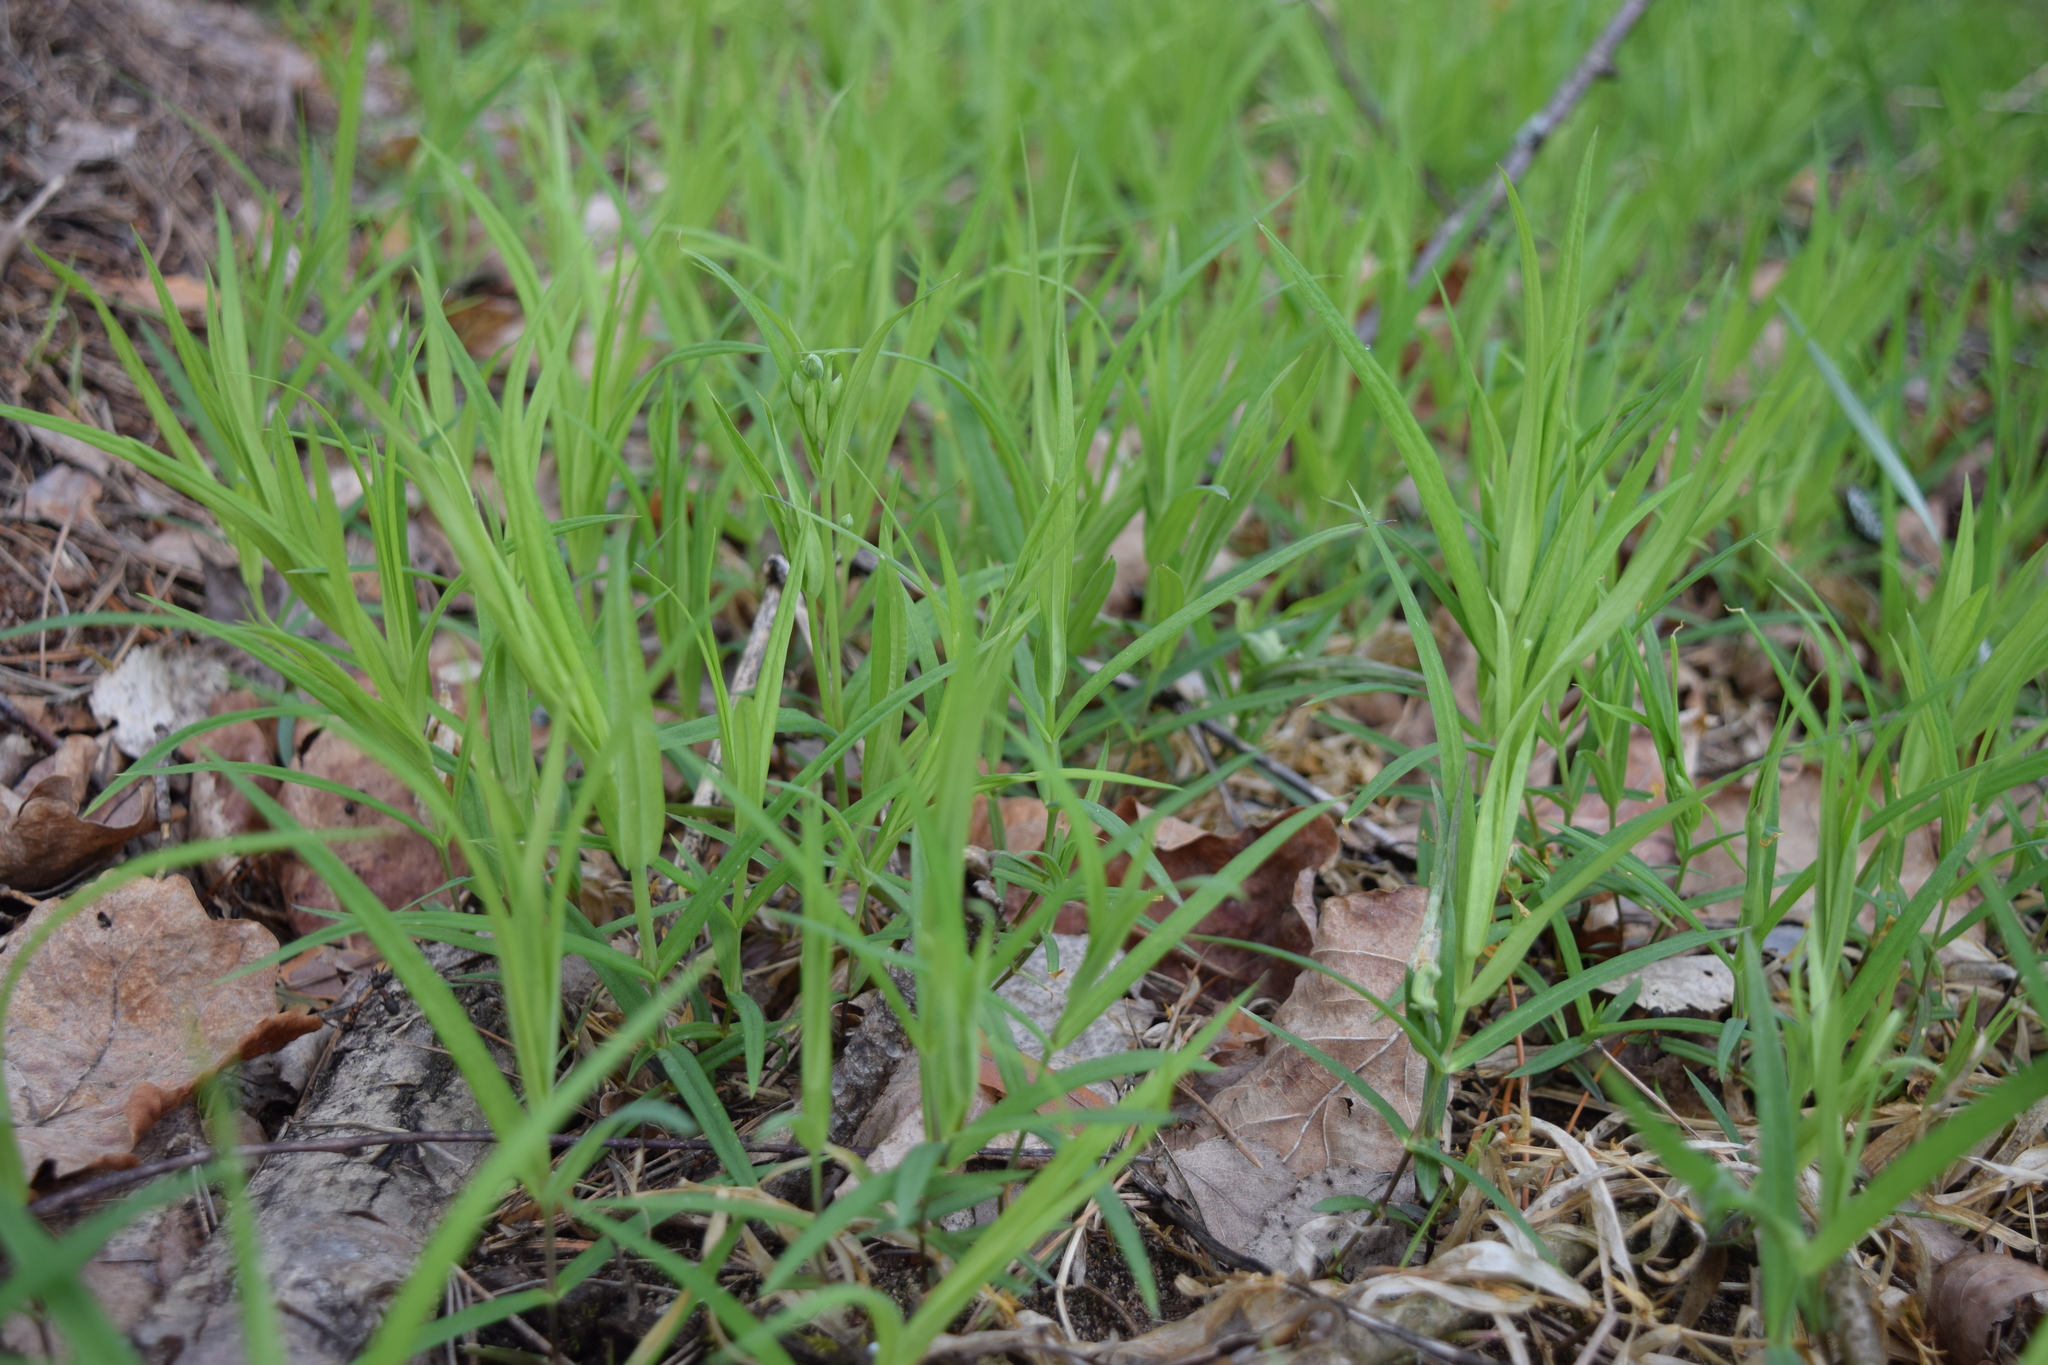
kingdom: Plantae
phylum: Tracheophyta
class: Magnoliopsida
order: Caryophyllales
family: Caryophyllaceae
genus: Rabelera
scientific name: Rabelera holostea
